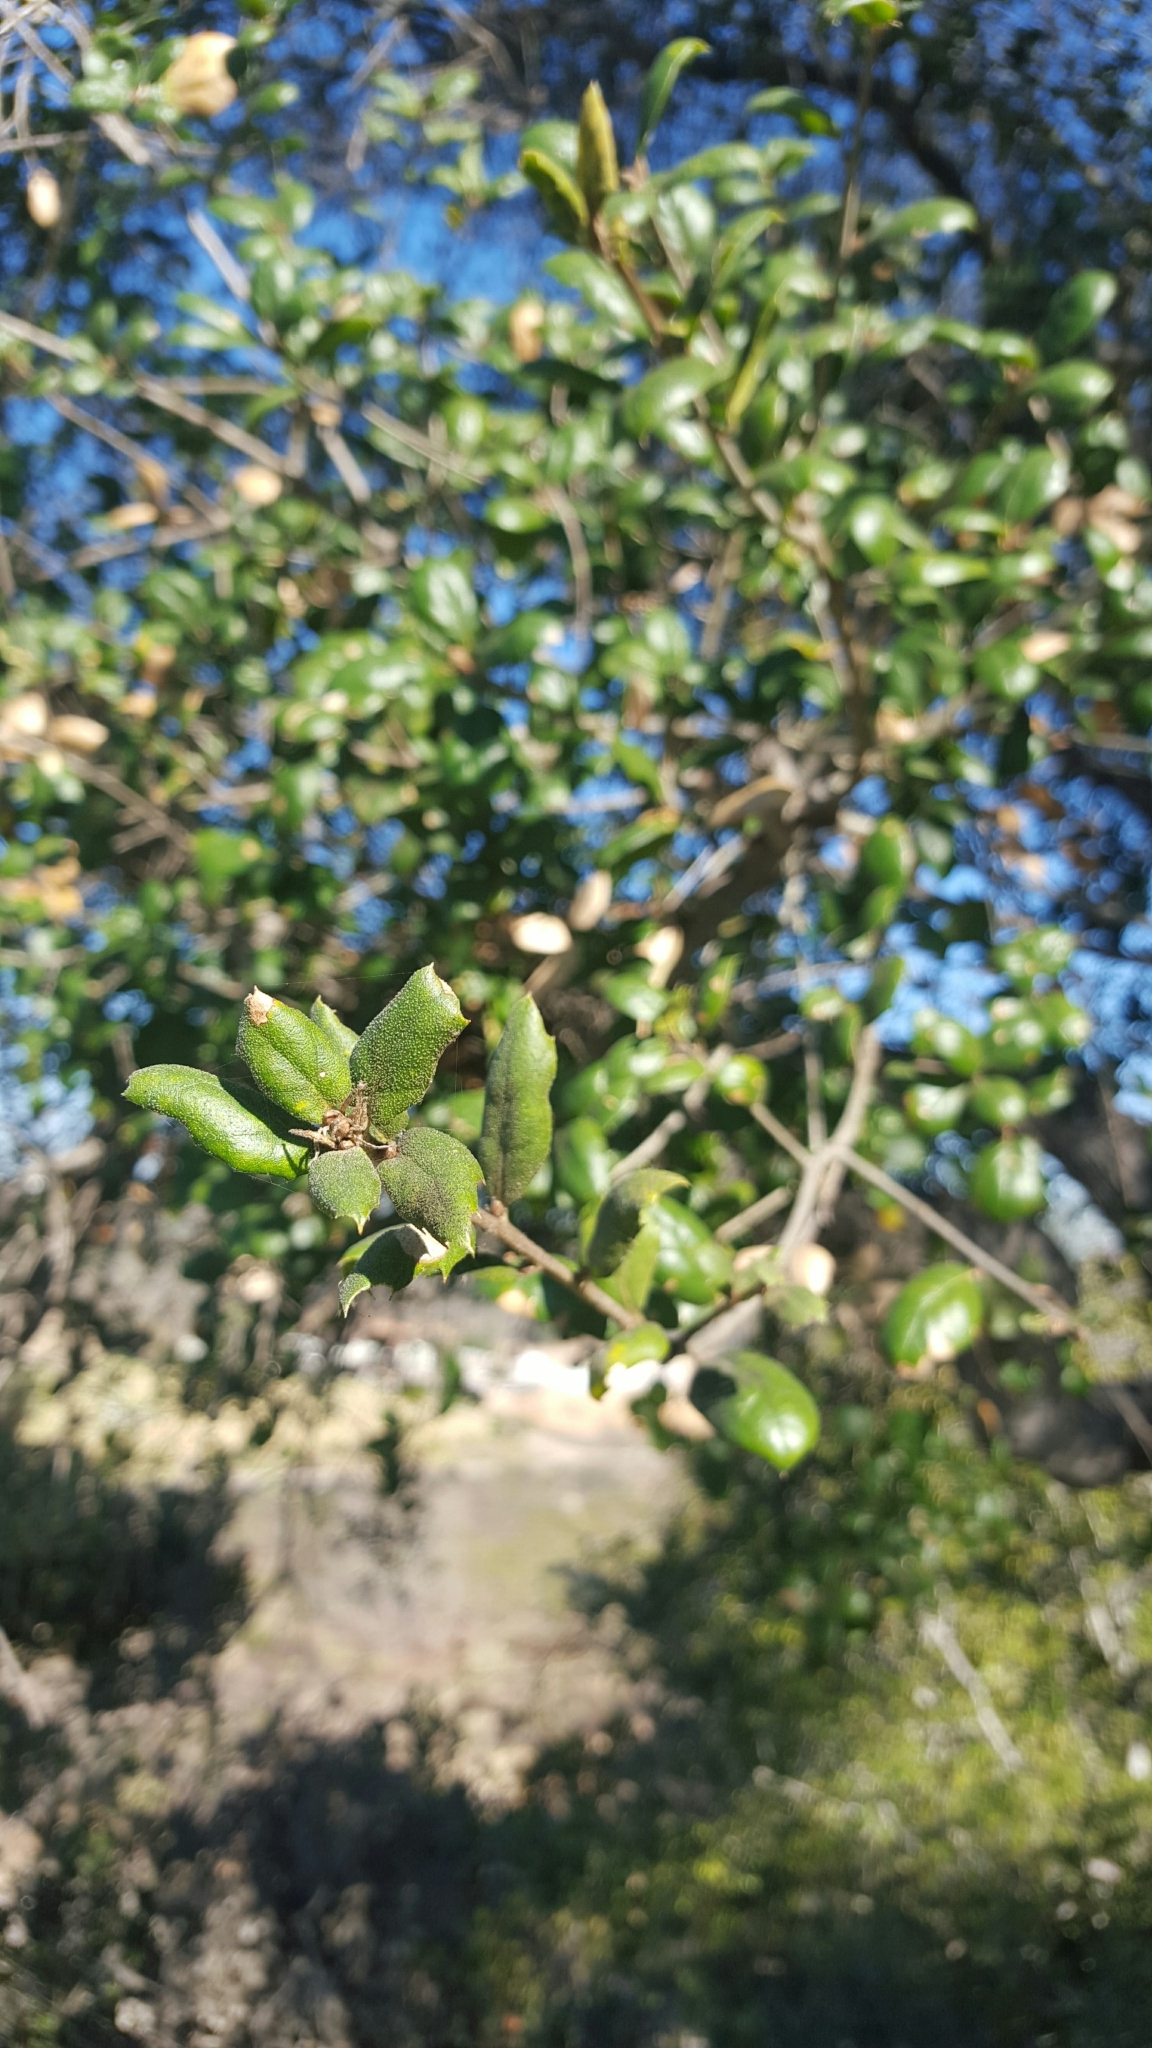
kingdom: Plantae
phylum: Tracheophyta
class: Magnoliopsida
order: Fagales
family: Fagaceae
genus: Quercus
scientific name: Quercus agrifolia
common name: California live oak
